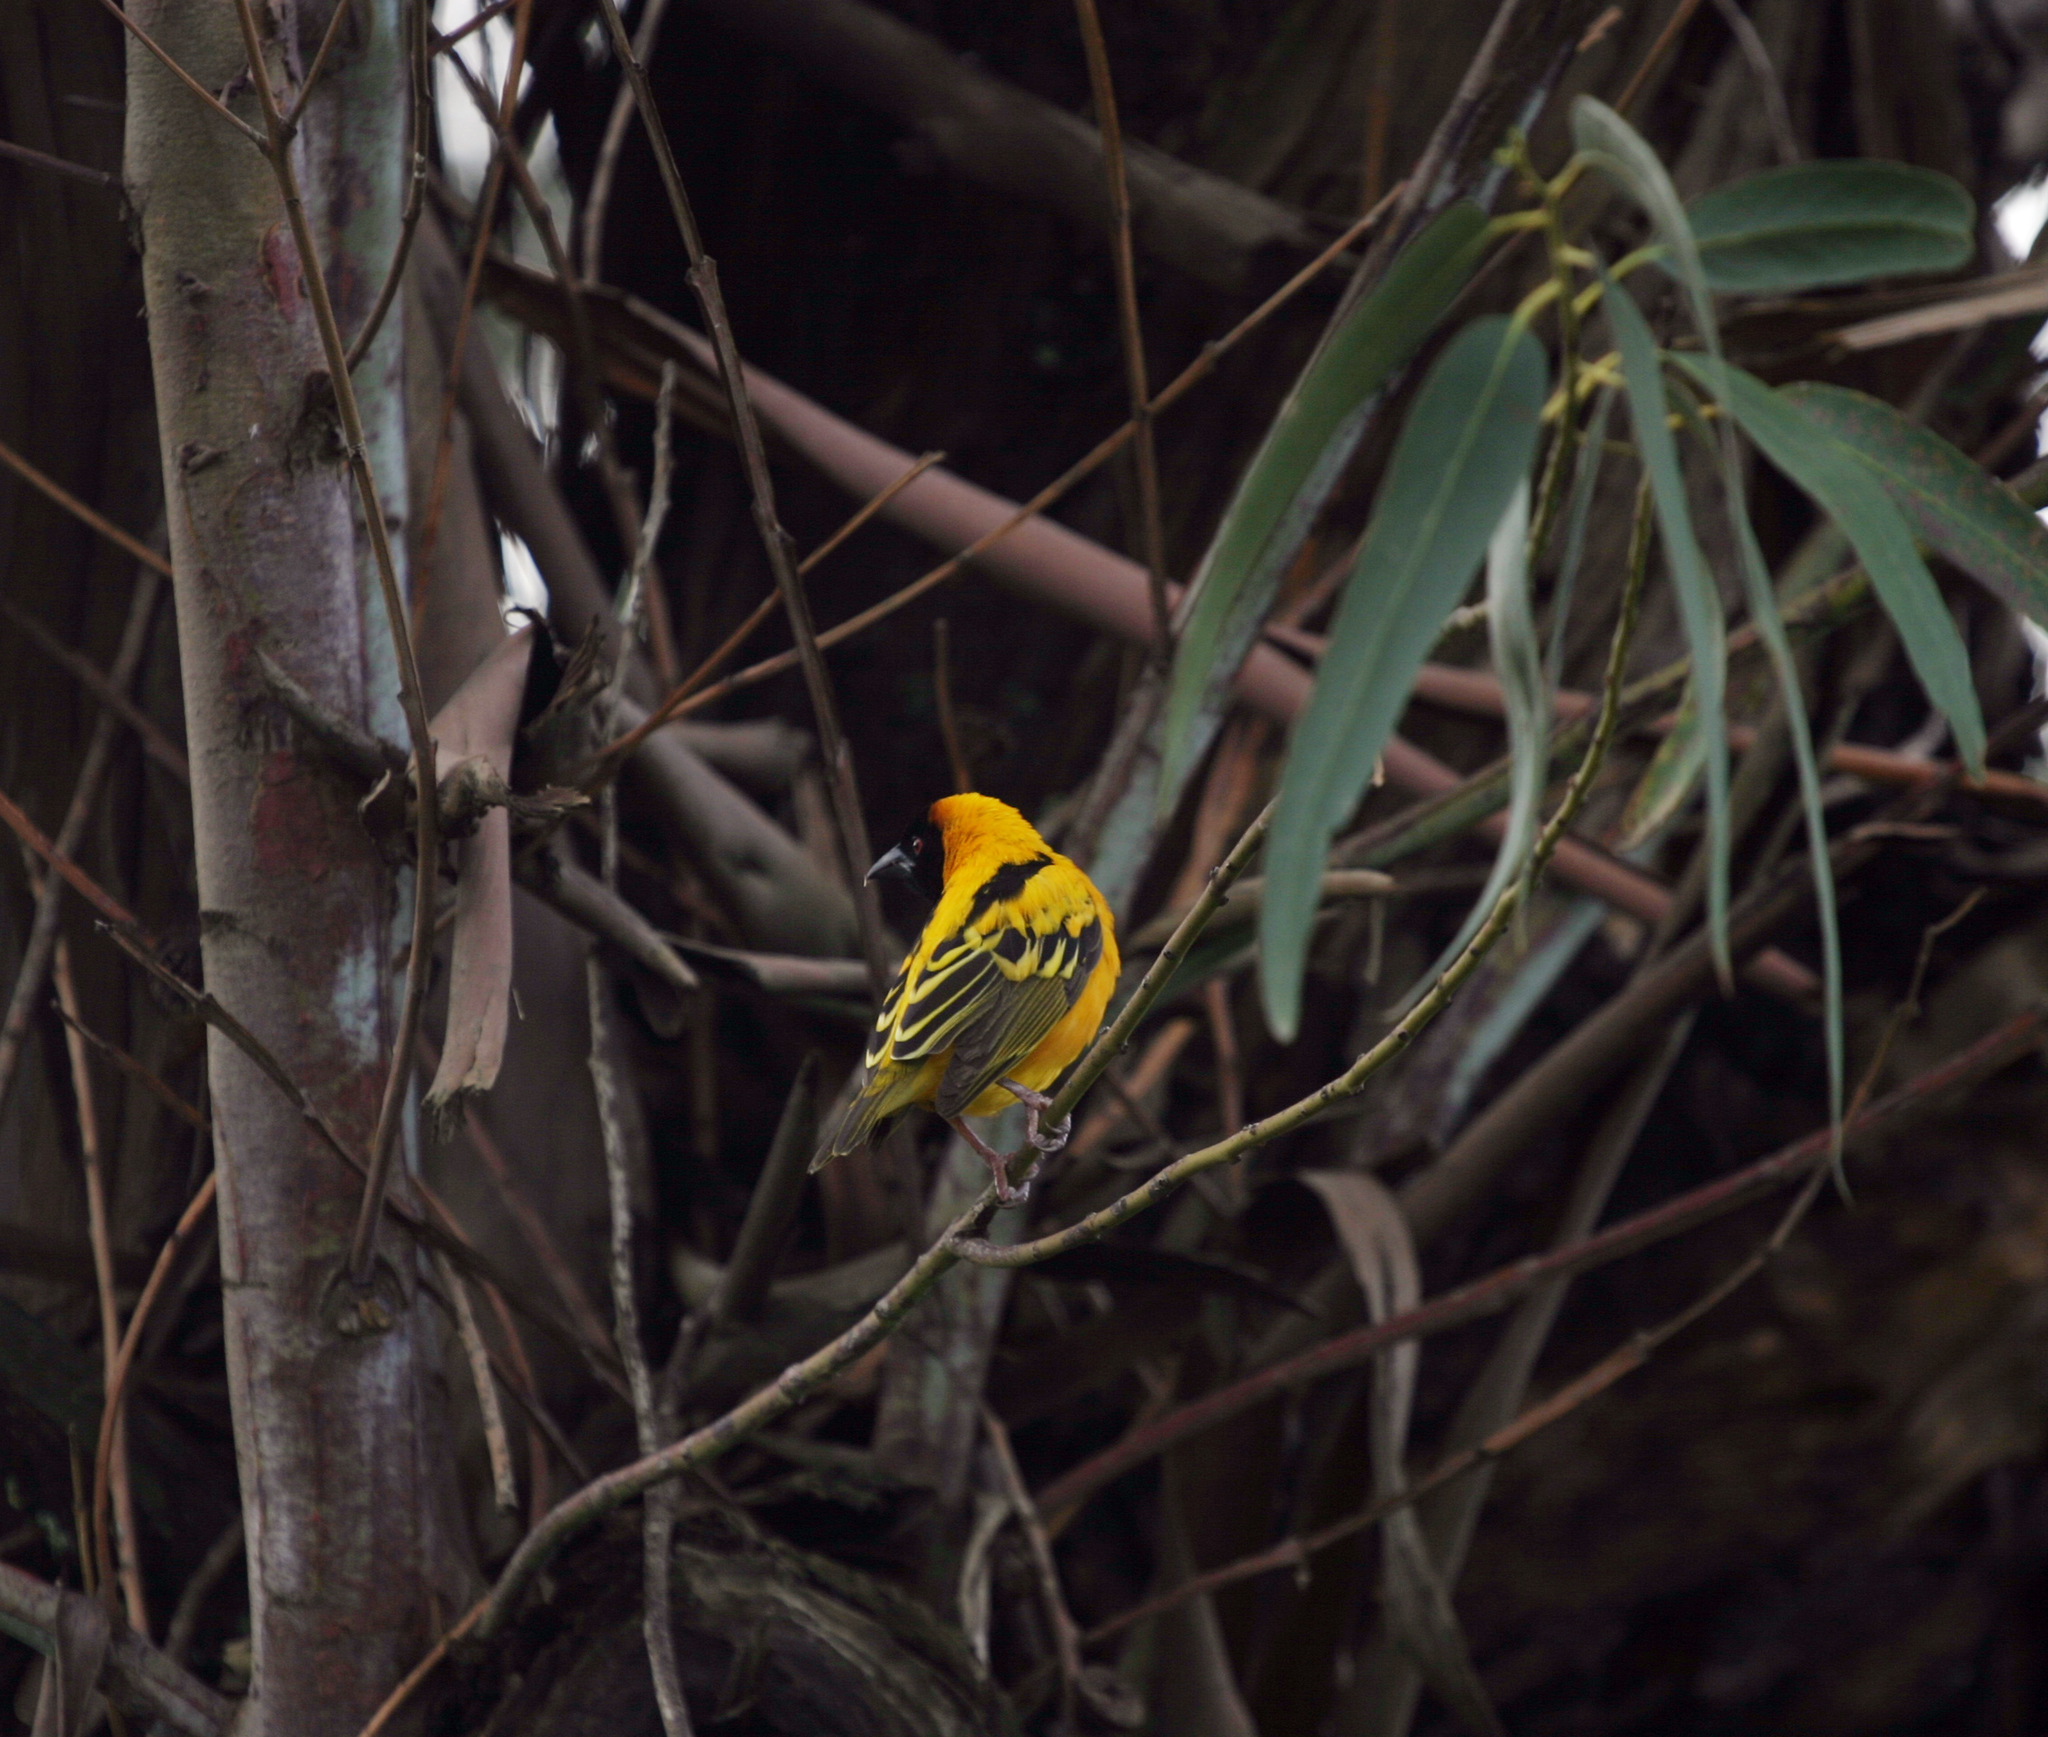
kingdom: Animalia
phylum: Chordata
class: Aves
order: Passeriformes
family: Ploceidae
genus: Ploceus
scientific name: Ploceus cucullatus
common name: Village weaver
